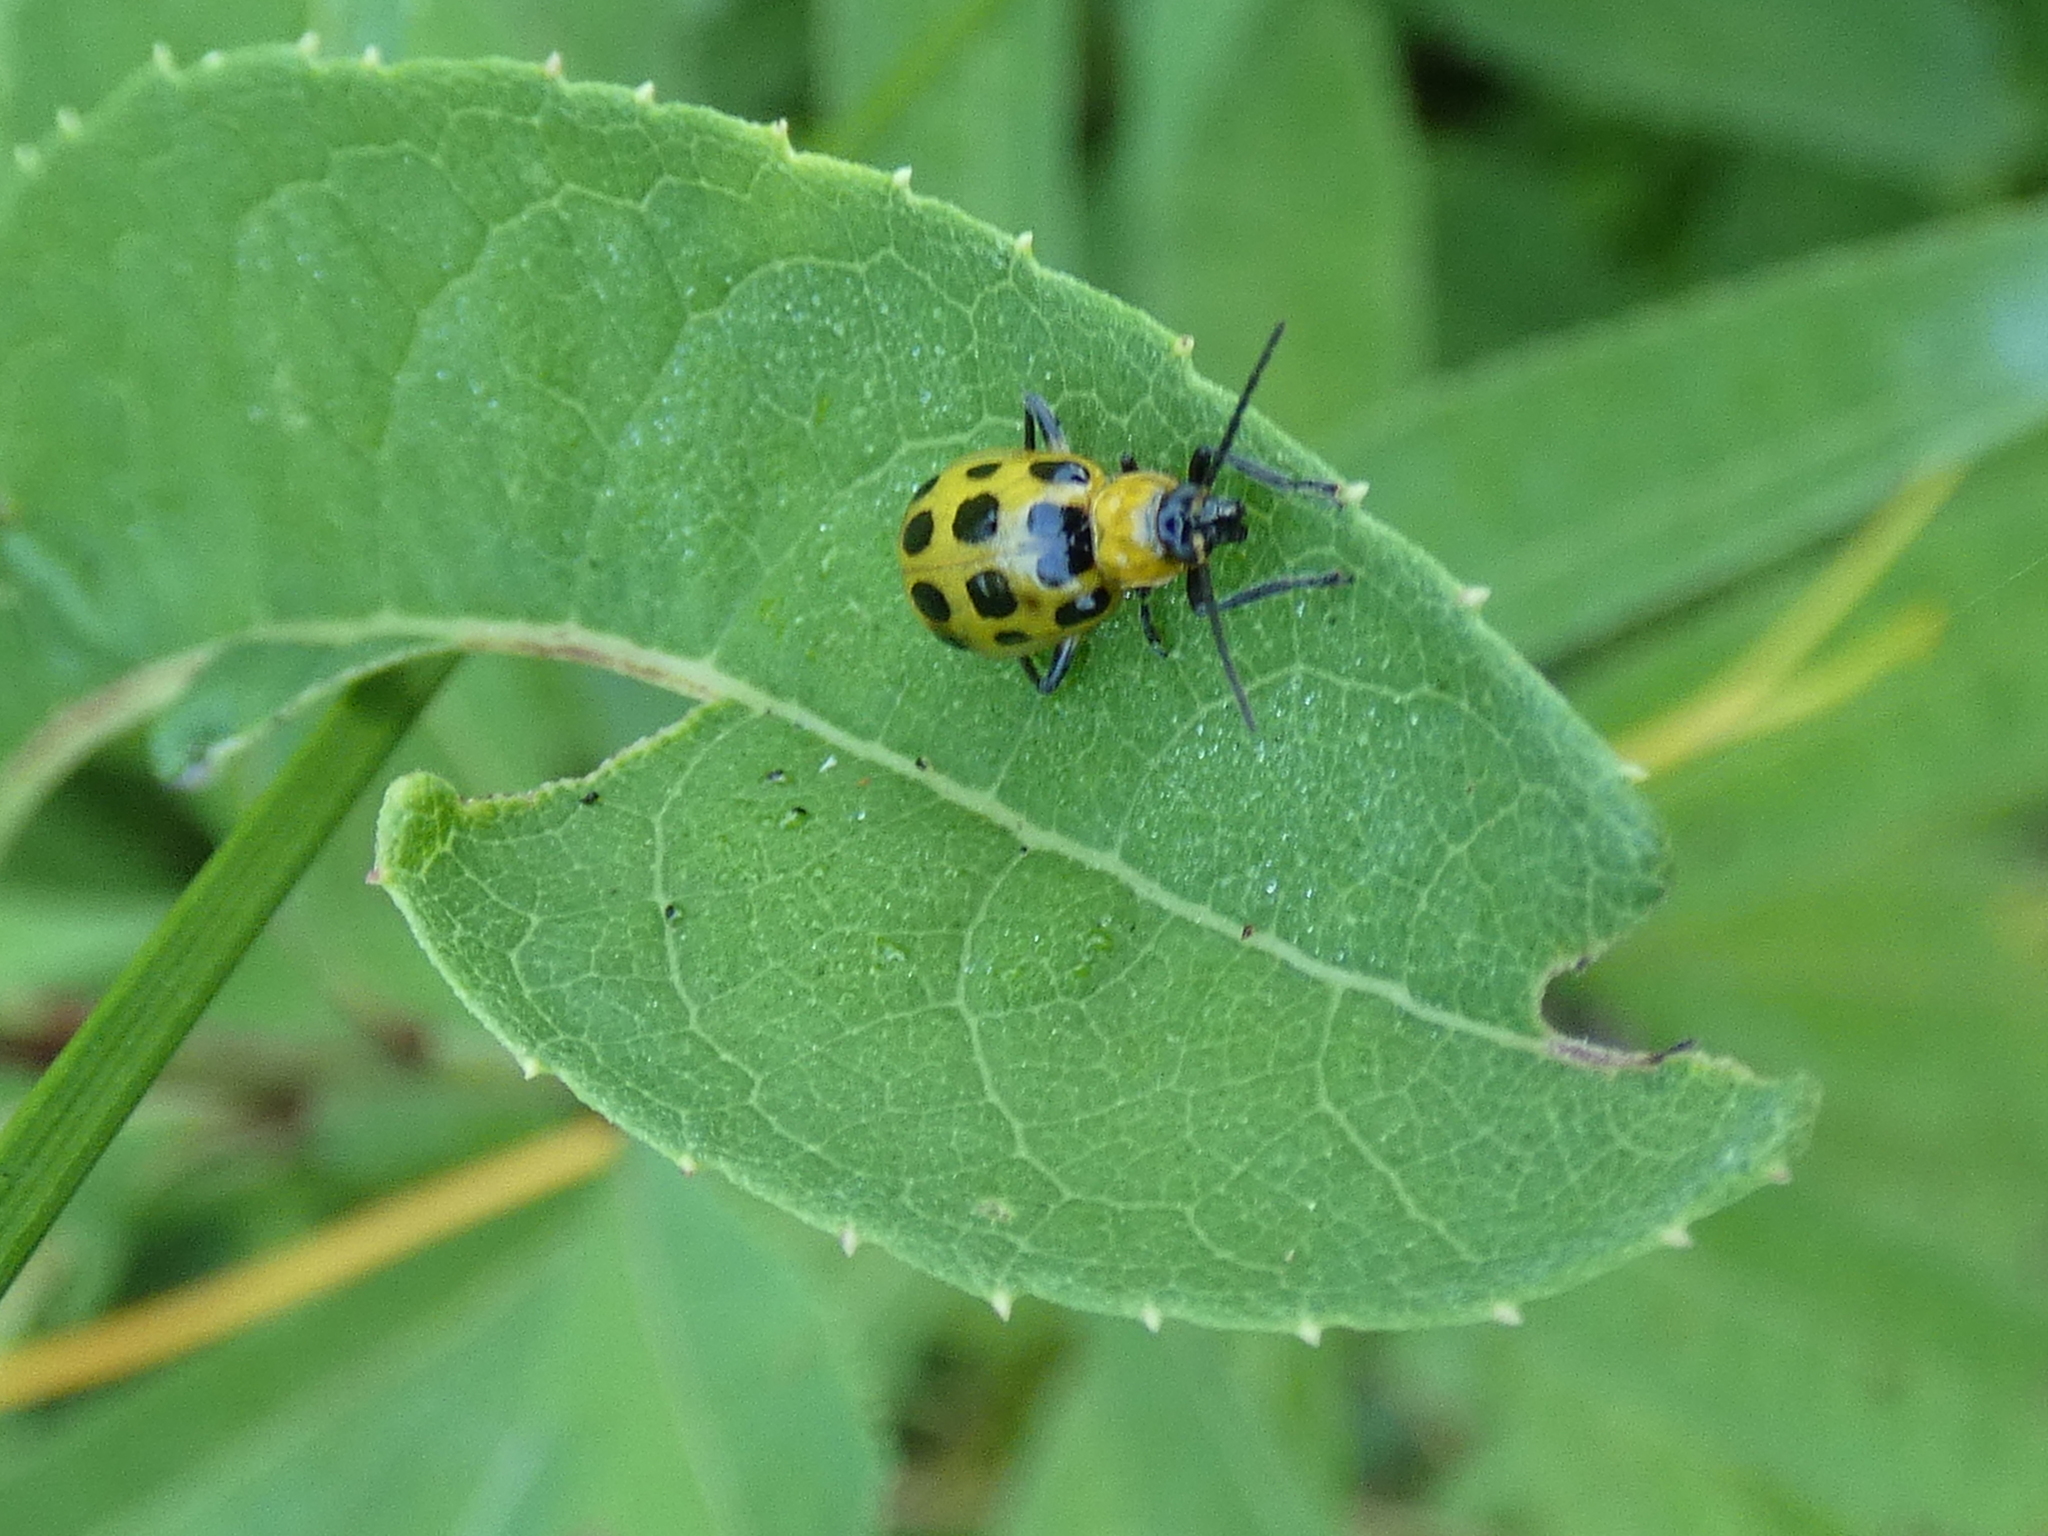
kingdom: Animalia
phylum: Arthropoda
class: Insecta
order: Coleoptera
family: Chrysomelidae
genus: Diabrotica
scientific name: Diabrotica undecimpunctata
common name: Spotted cucumber beetle
